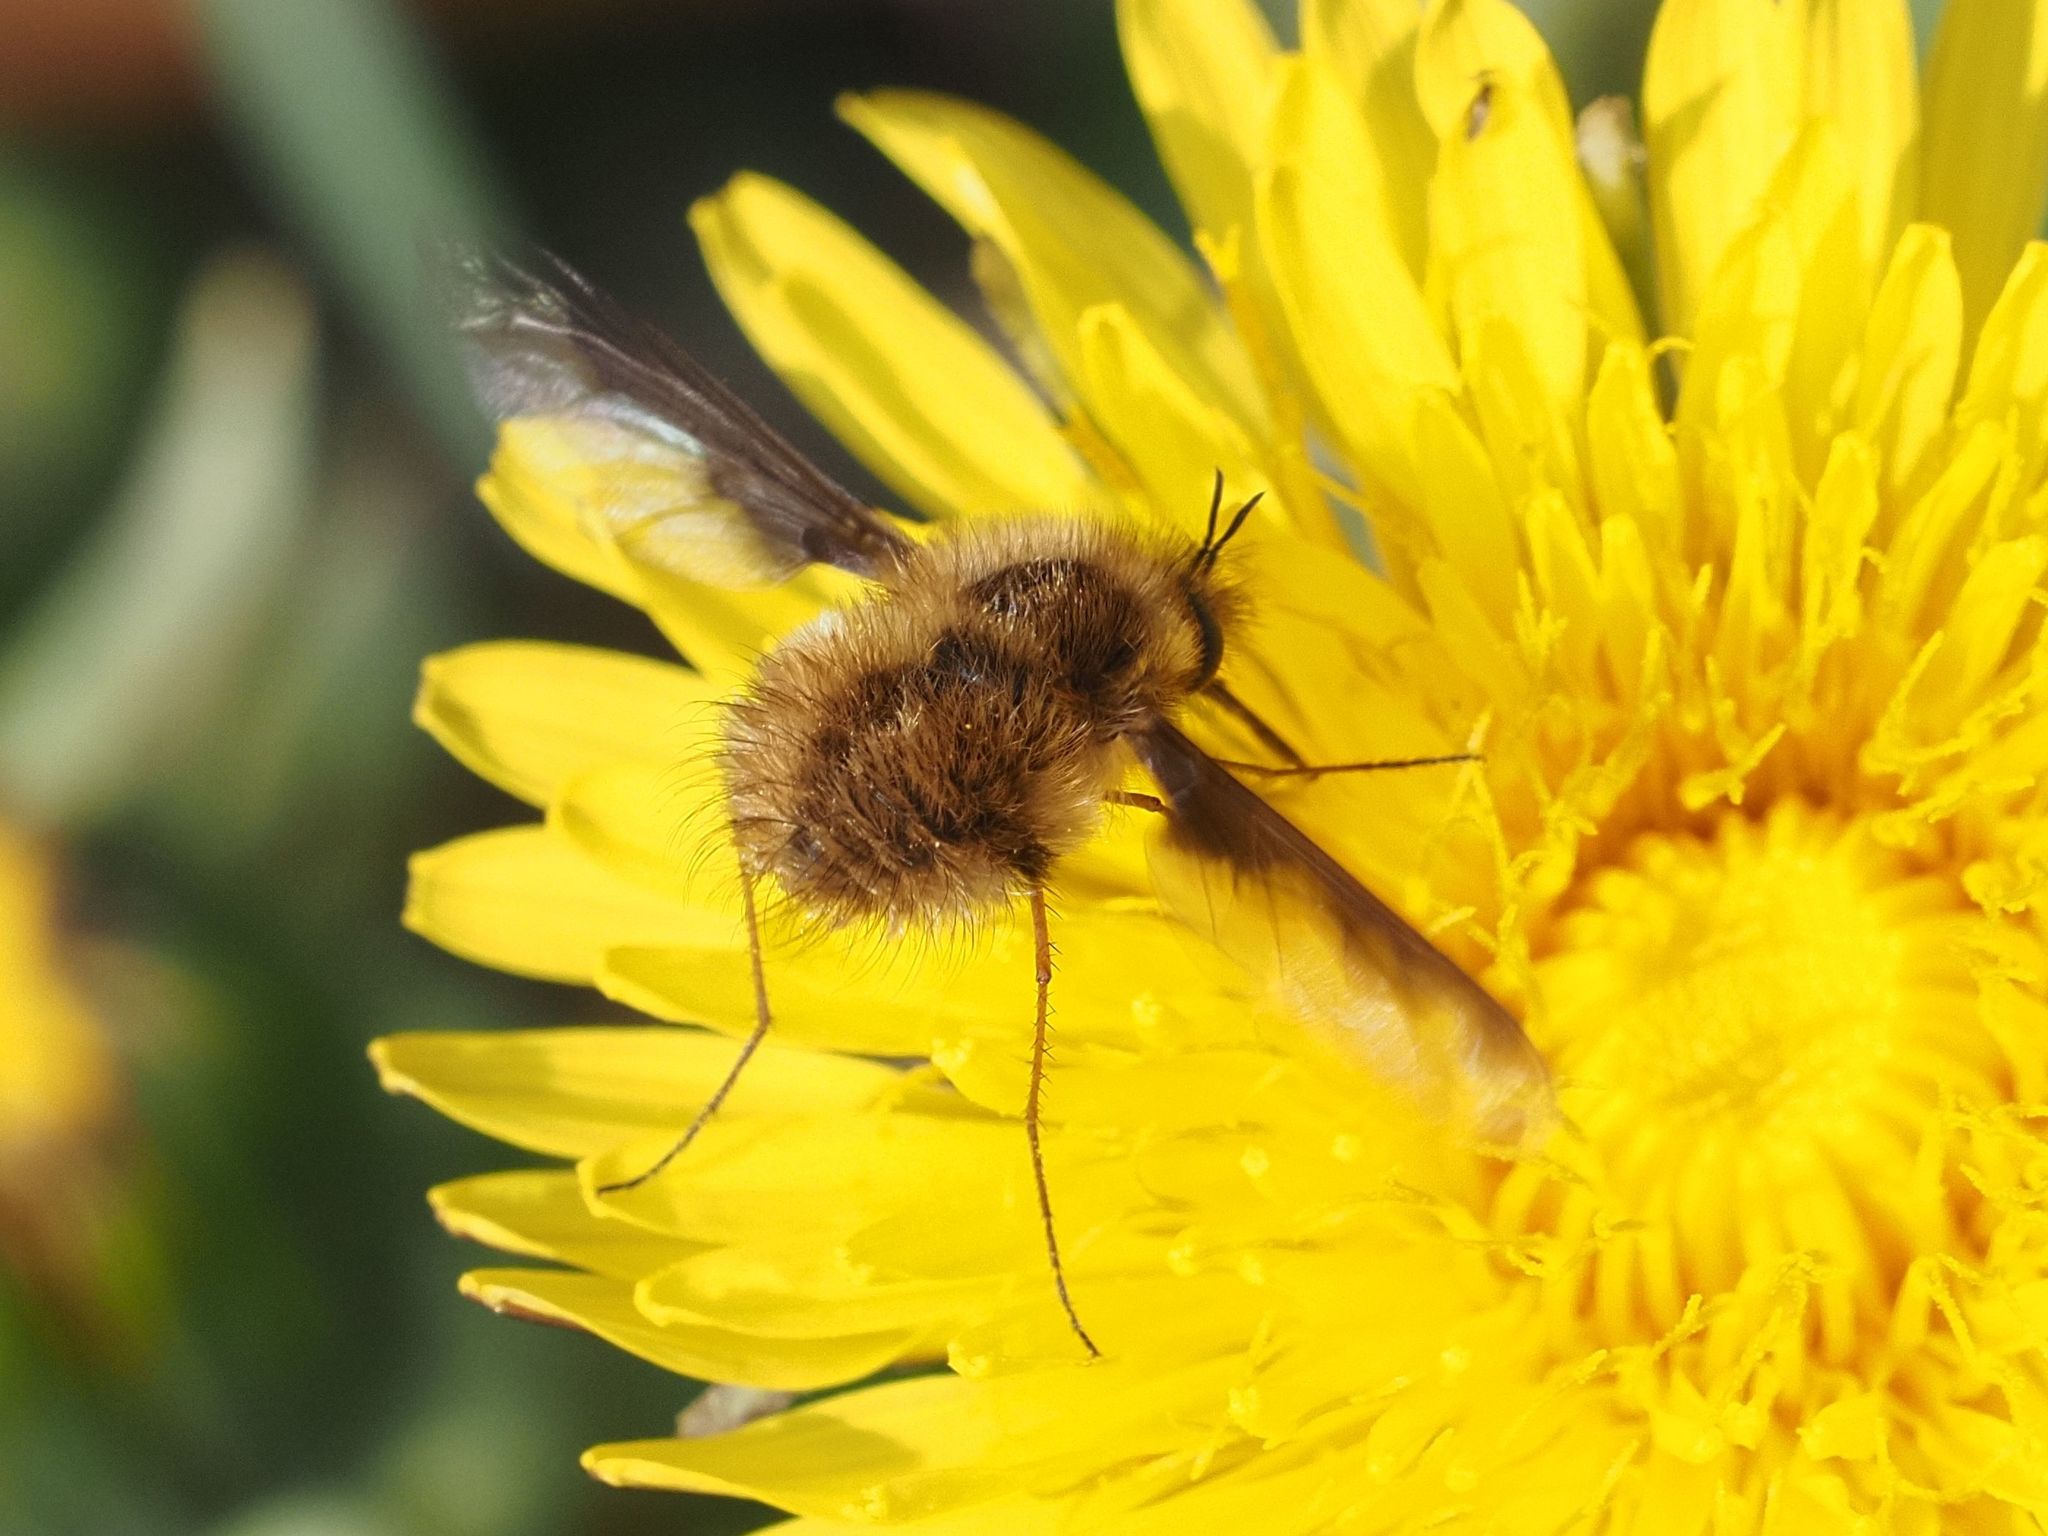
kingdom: Animalia
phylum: Arthropoda
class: Insecta
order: Diptera
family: Bombyliidae
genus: Bombylius
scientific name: Bombylius major
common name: Bee fly
